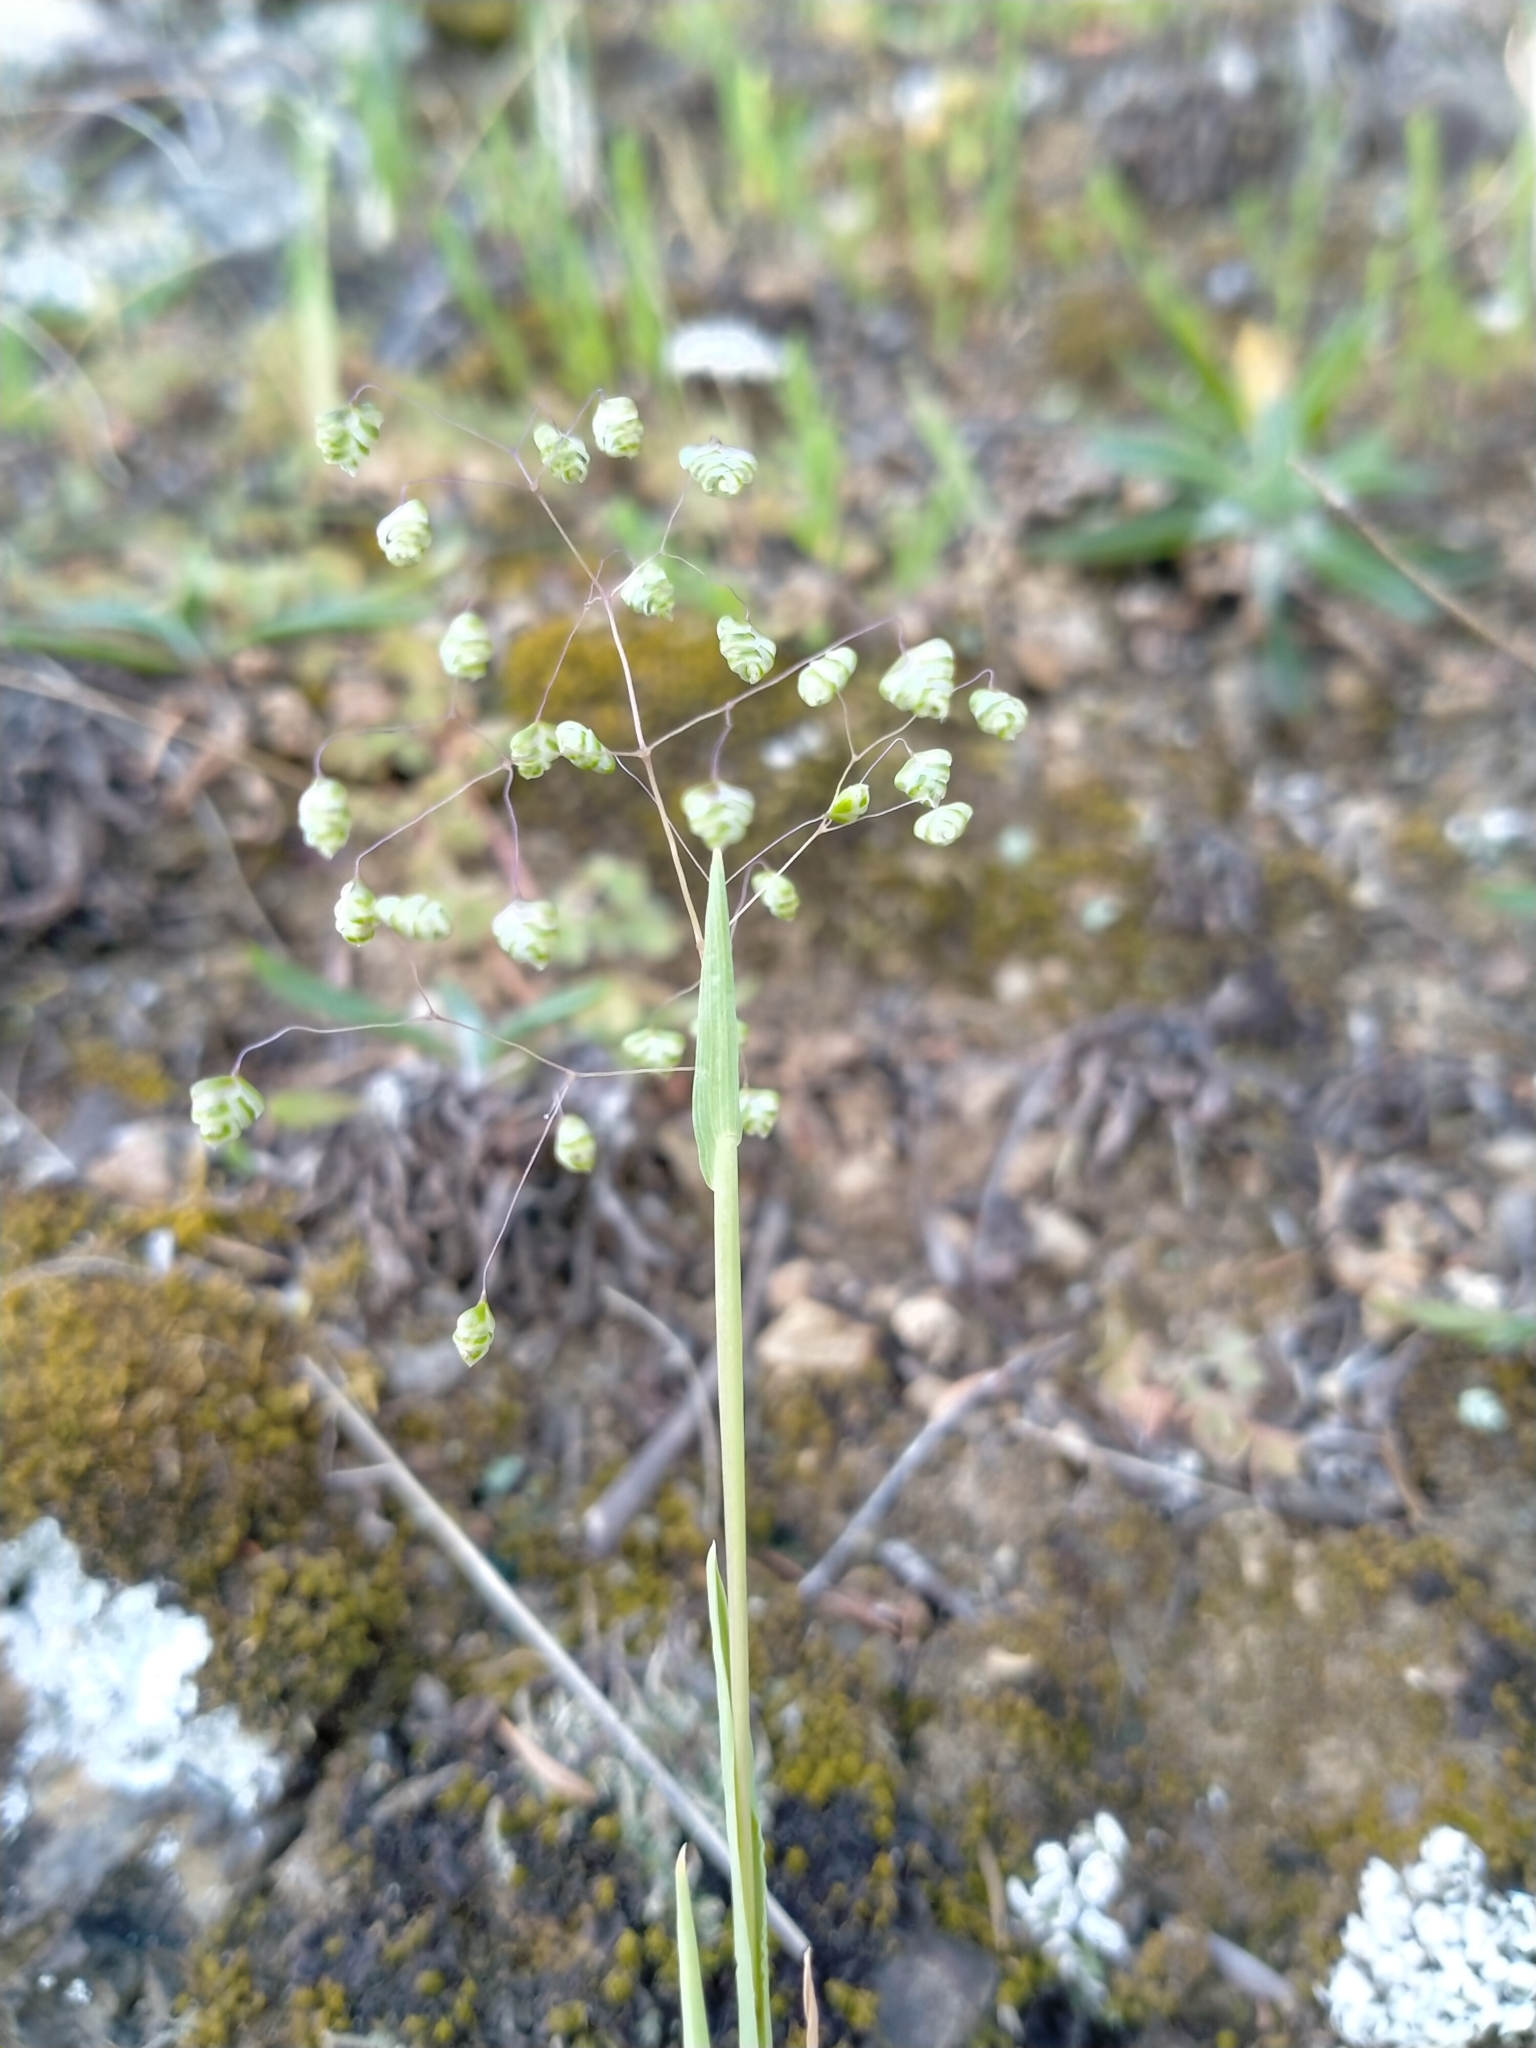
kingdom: Plantae
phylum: Tracheophyta
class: Liliopsida
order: Poales
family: Poaceae
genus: Briza
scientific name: Briza minor
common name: Lesser quaking-grass
